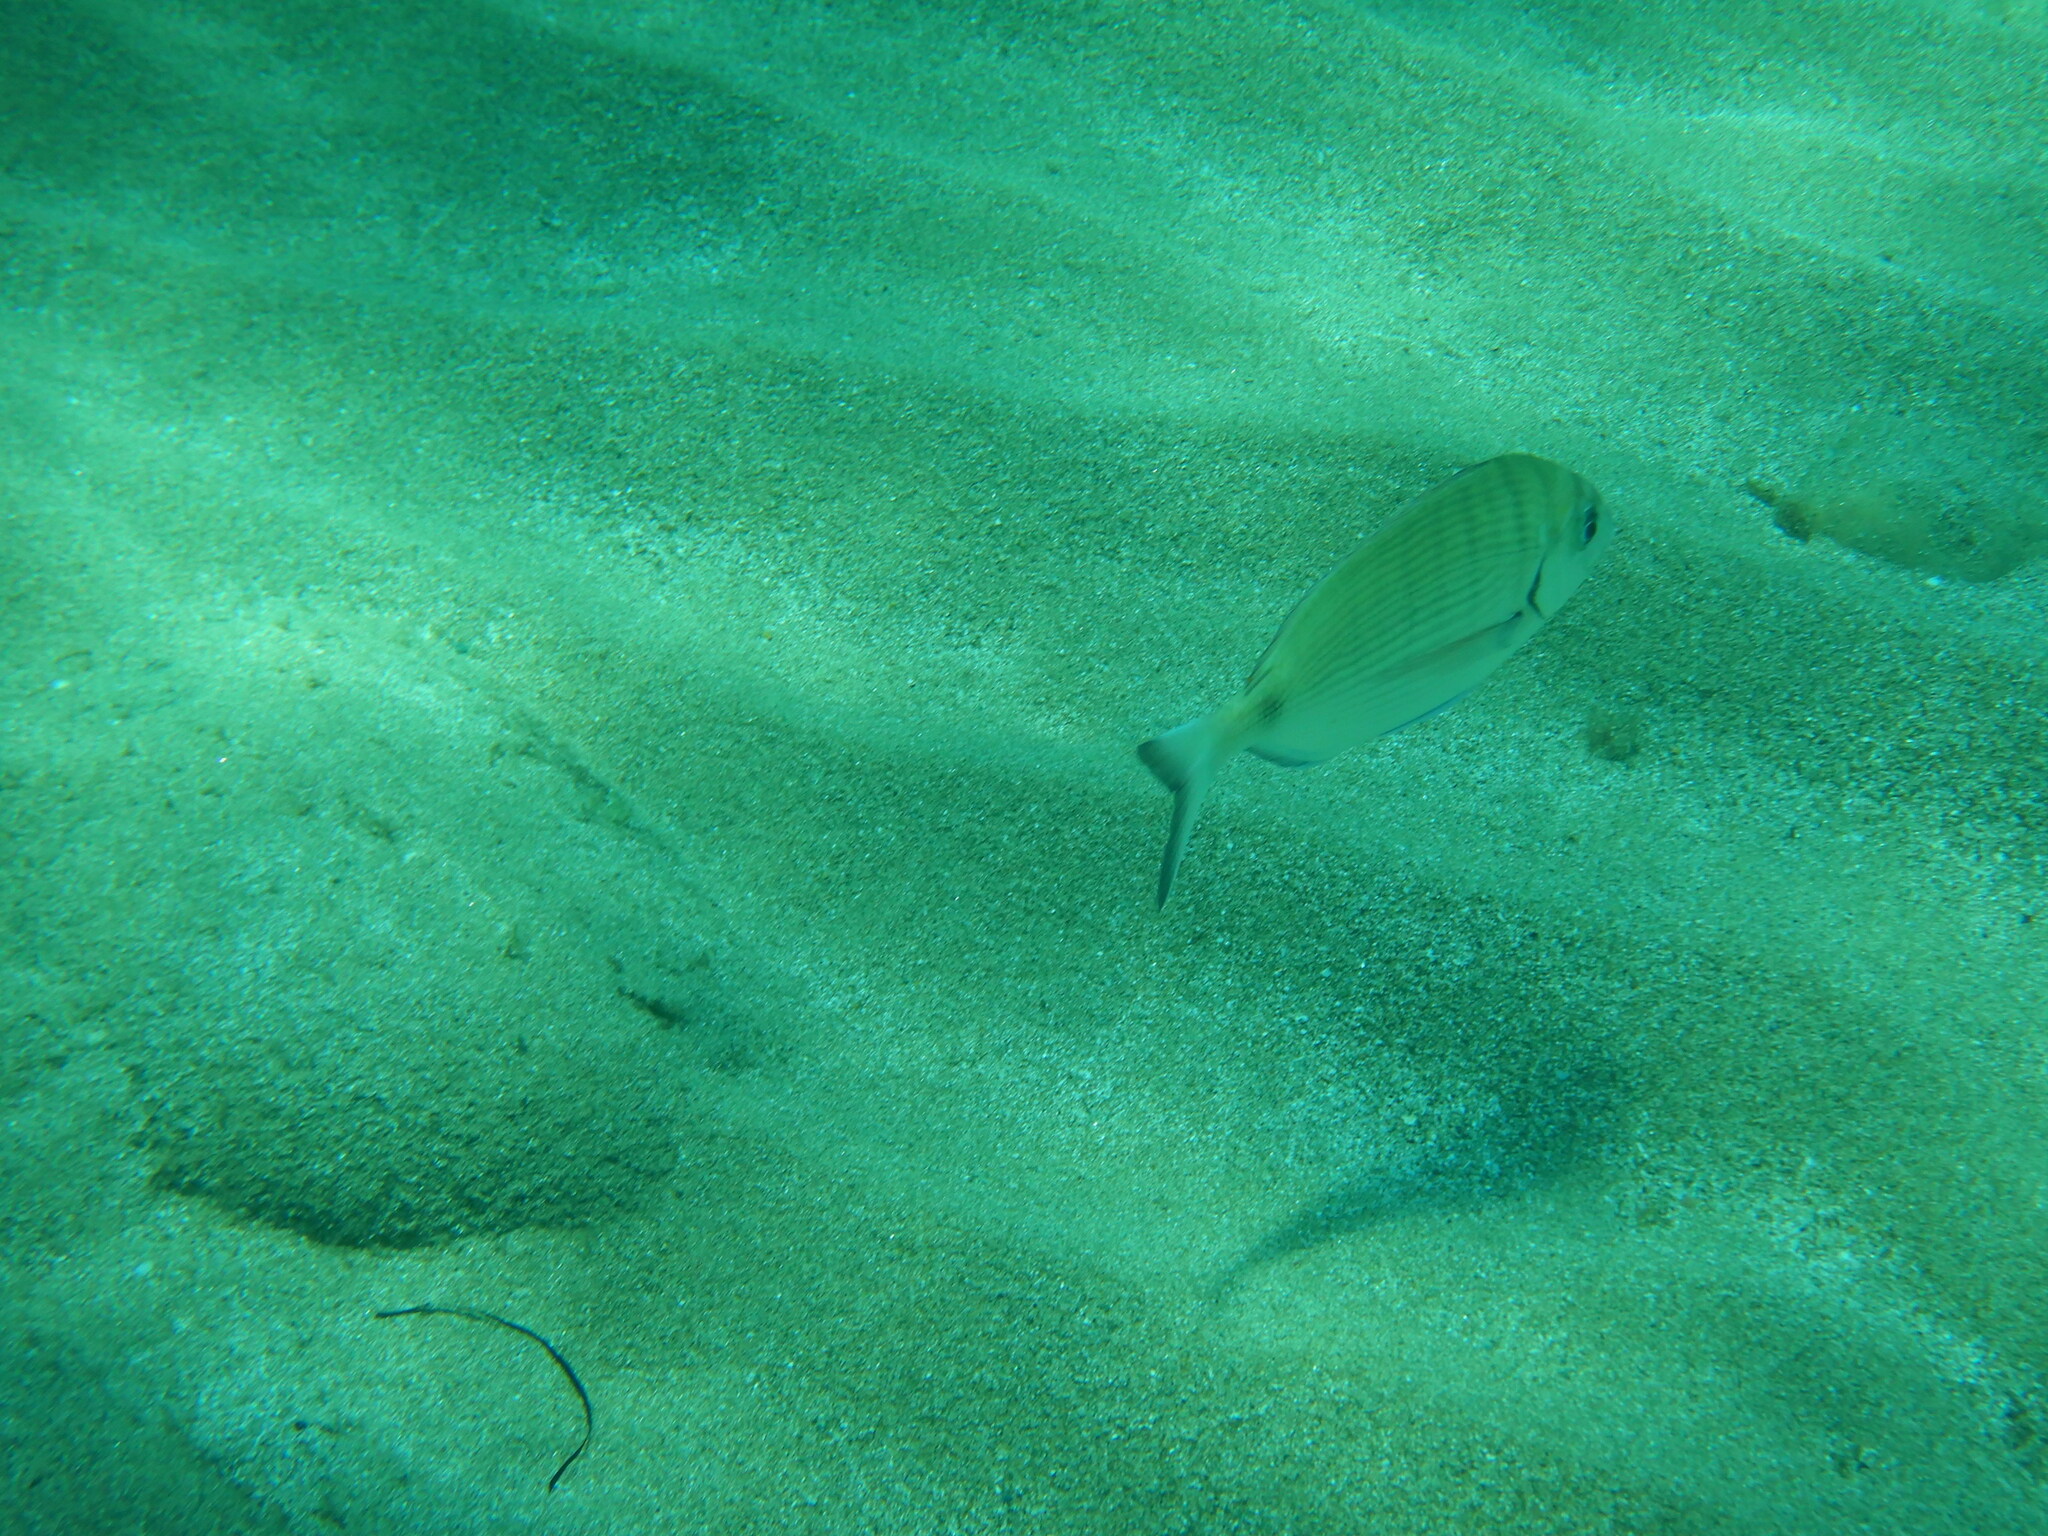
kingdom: Animalia
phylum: Chordata
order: Perciformes
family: Sparidae
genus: Diplodus
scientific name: Diplodus sargus
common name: White seabream
